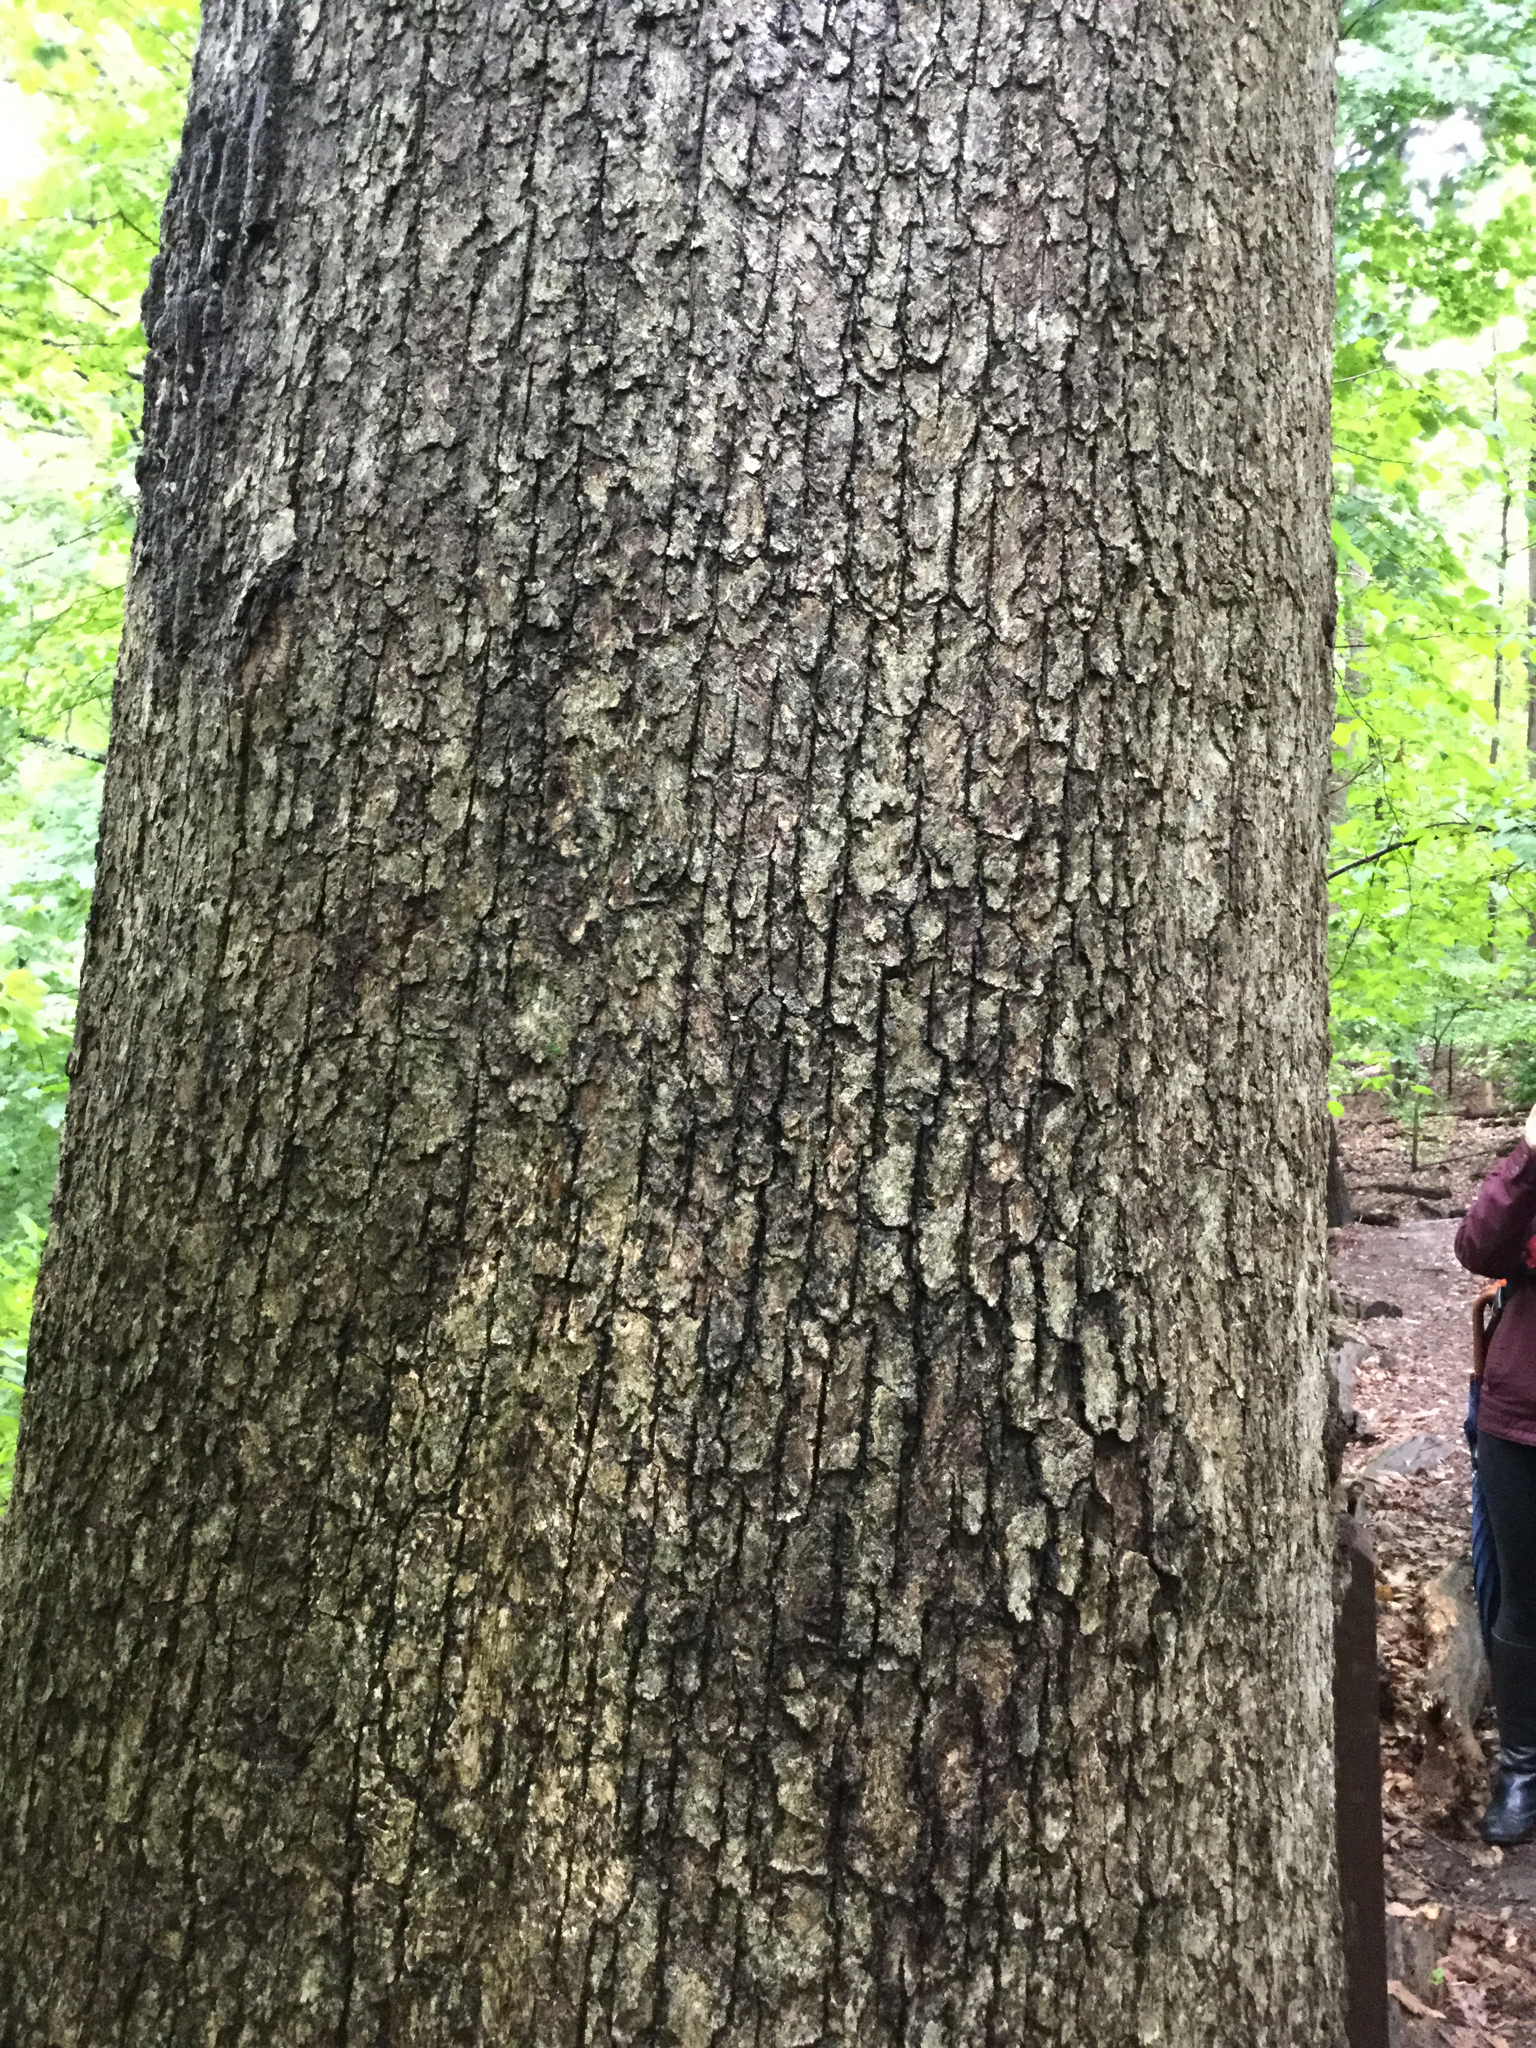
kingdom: Plantae
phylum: Tracheophyta
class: Magnoliopsida
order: Fagales
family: Fagaceae
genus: Quercus
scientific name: Quercus alba
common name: White oak
